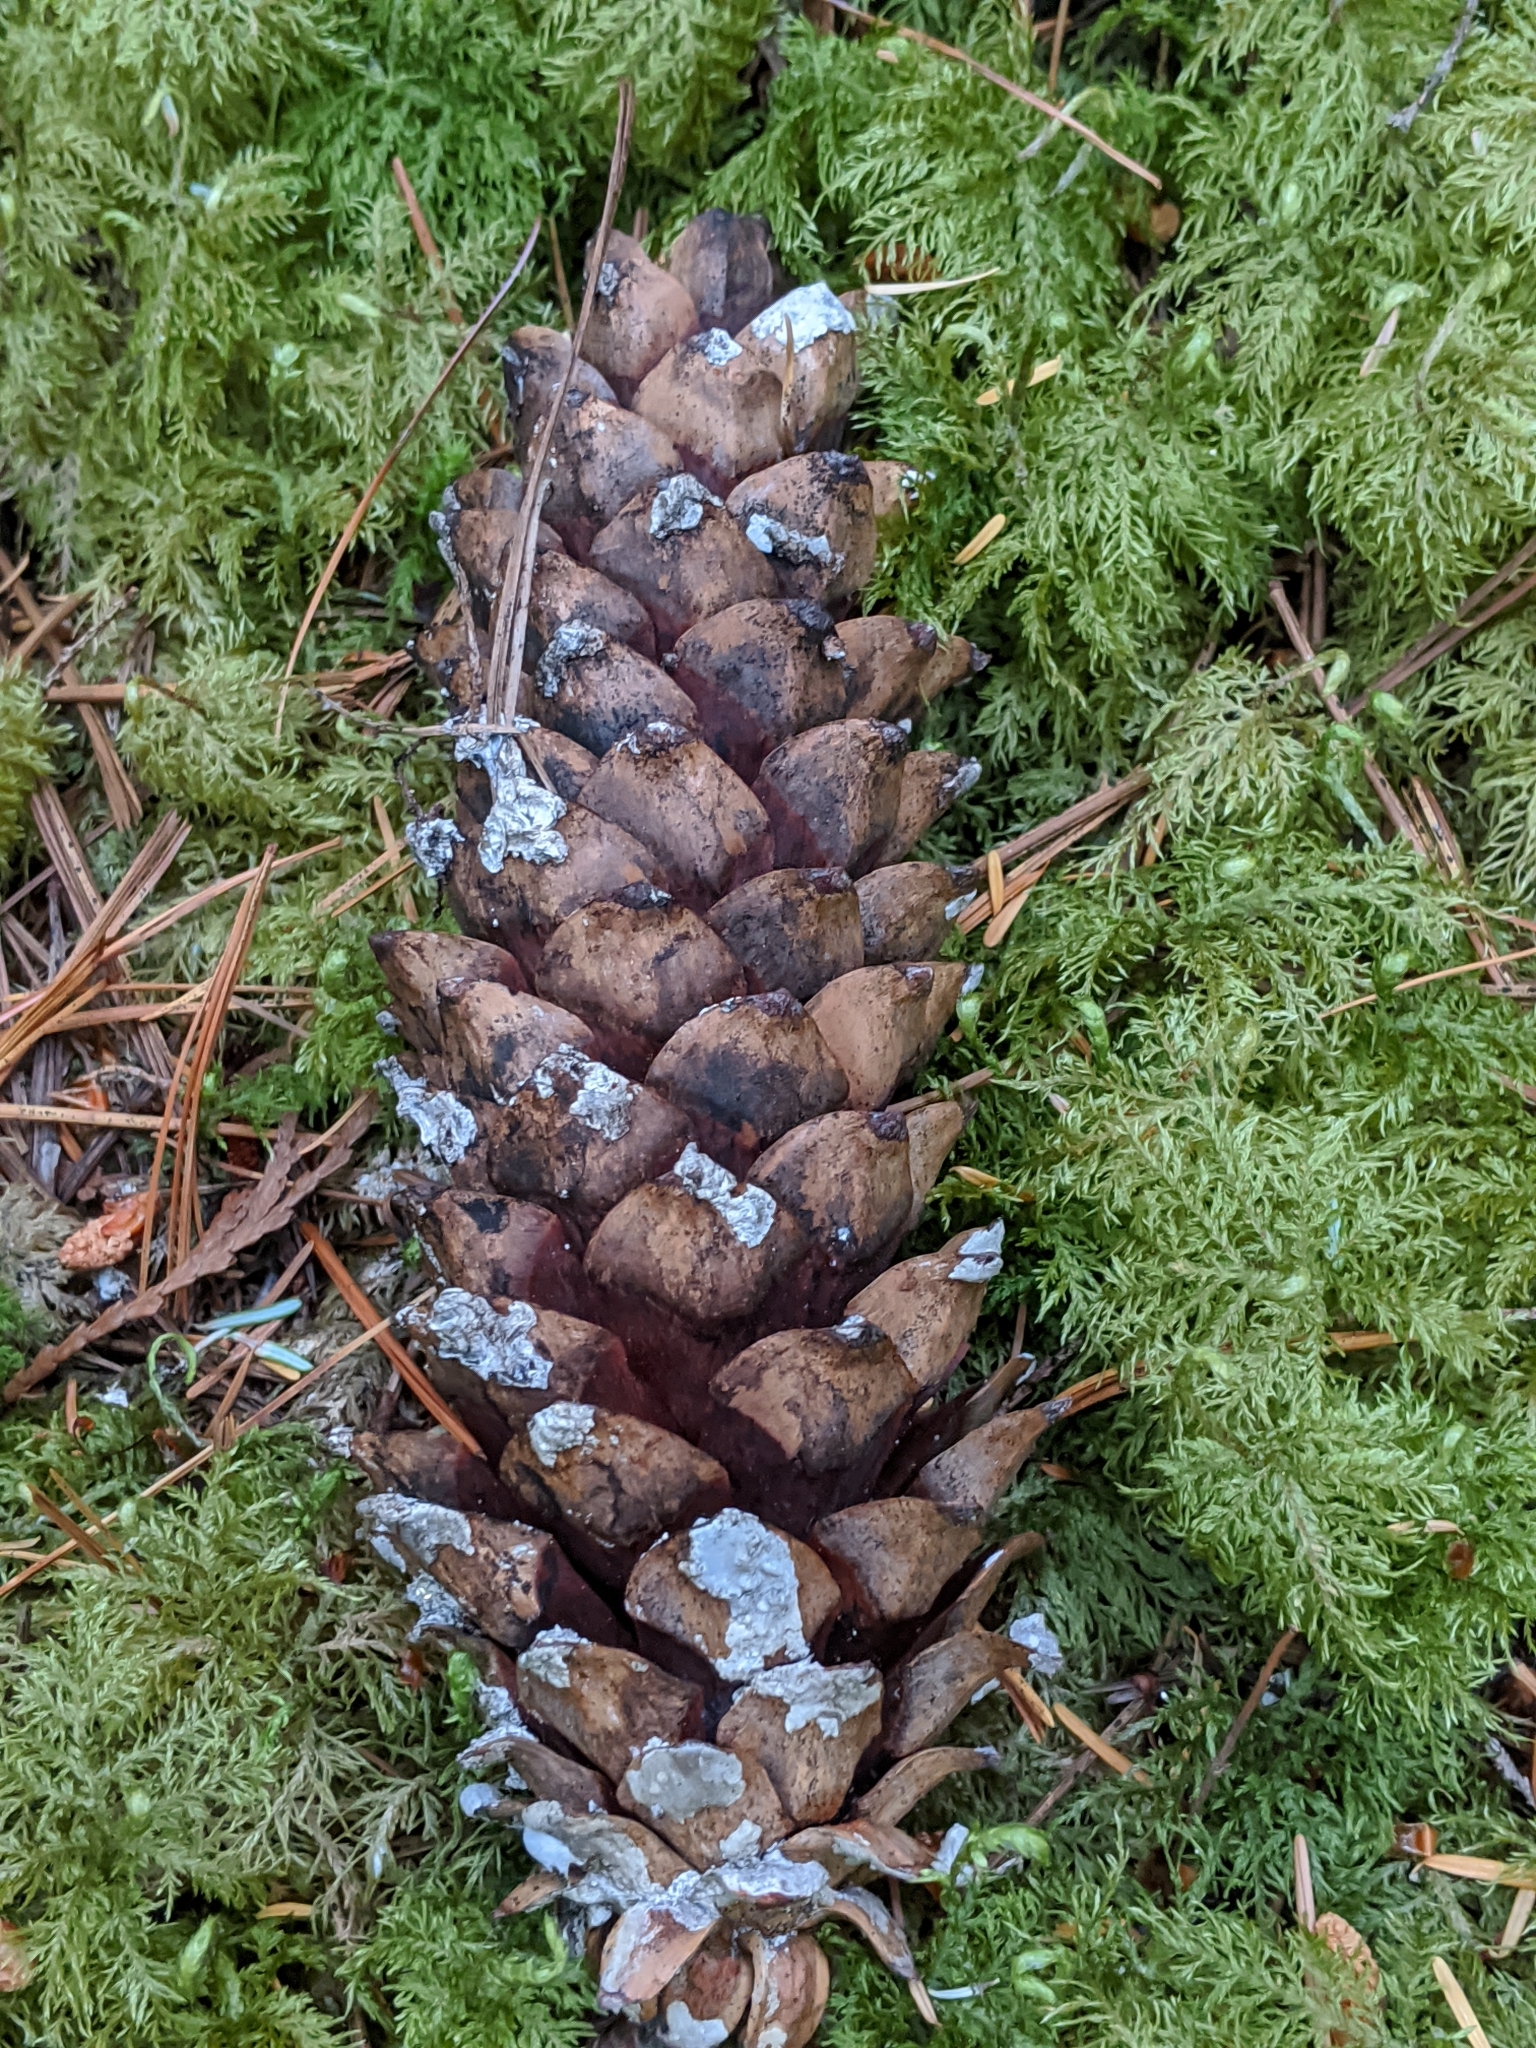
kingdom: Plantae
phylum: Tracheophyta
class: Pinopsida
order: Pinales
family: Pinaceae
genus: Pinus
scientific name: Pinus monticola
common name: Western white pine
